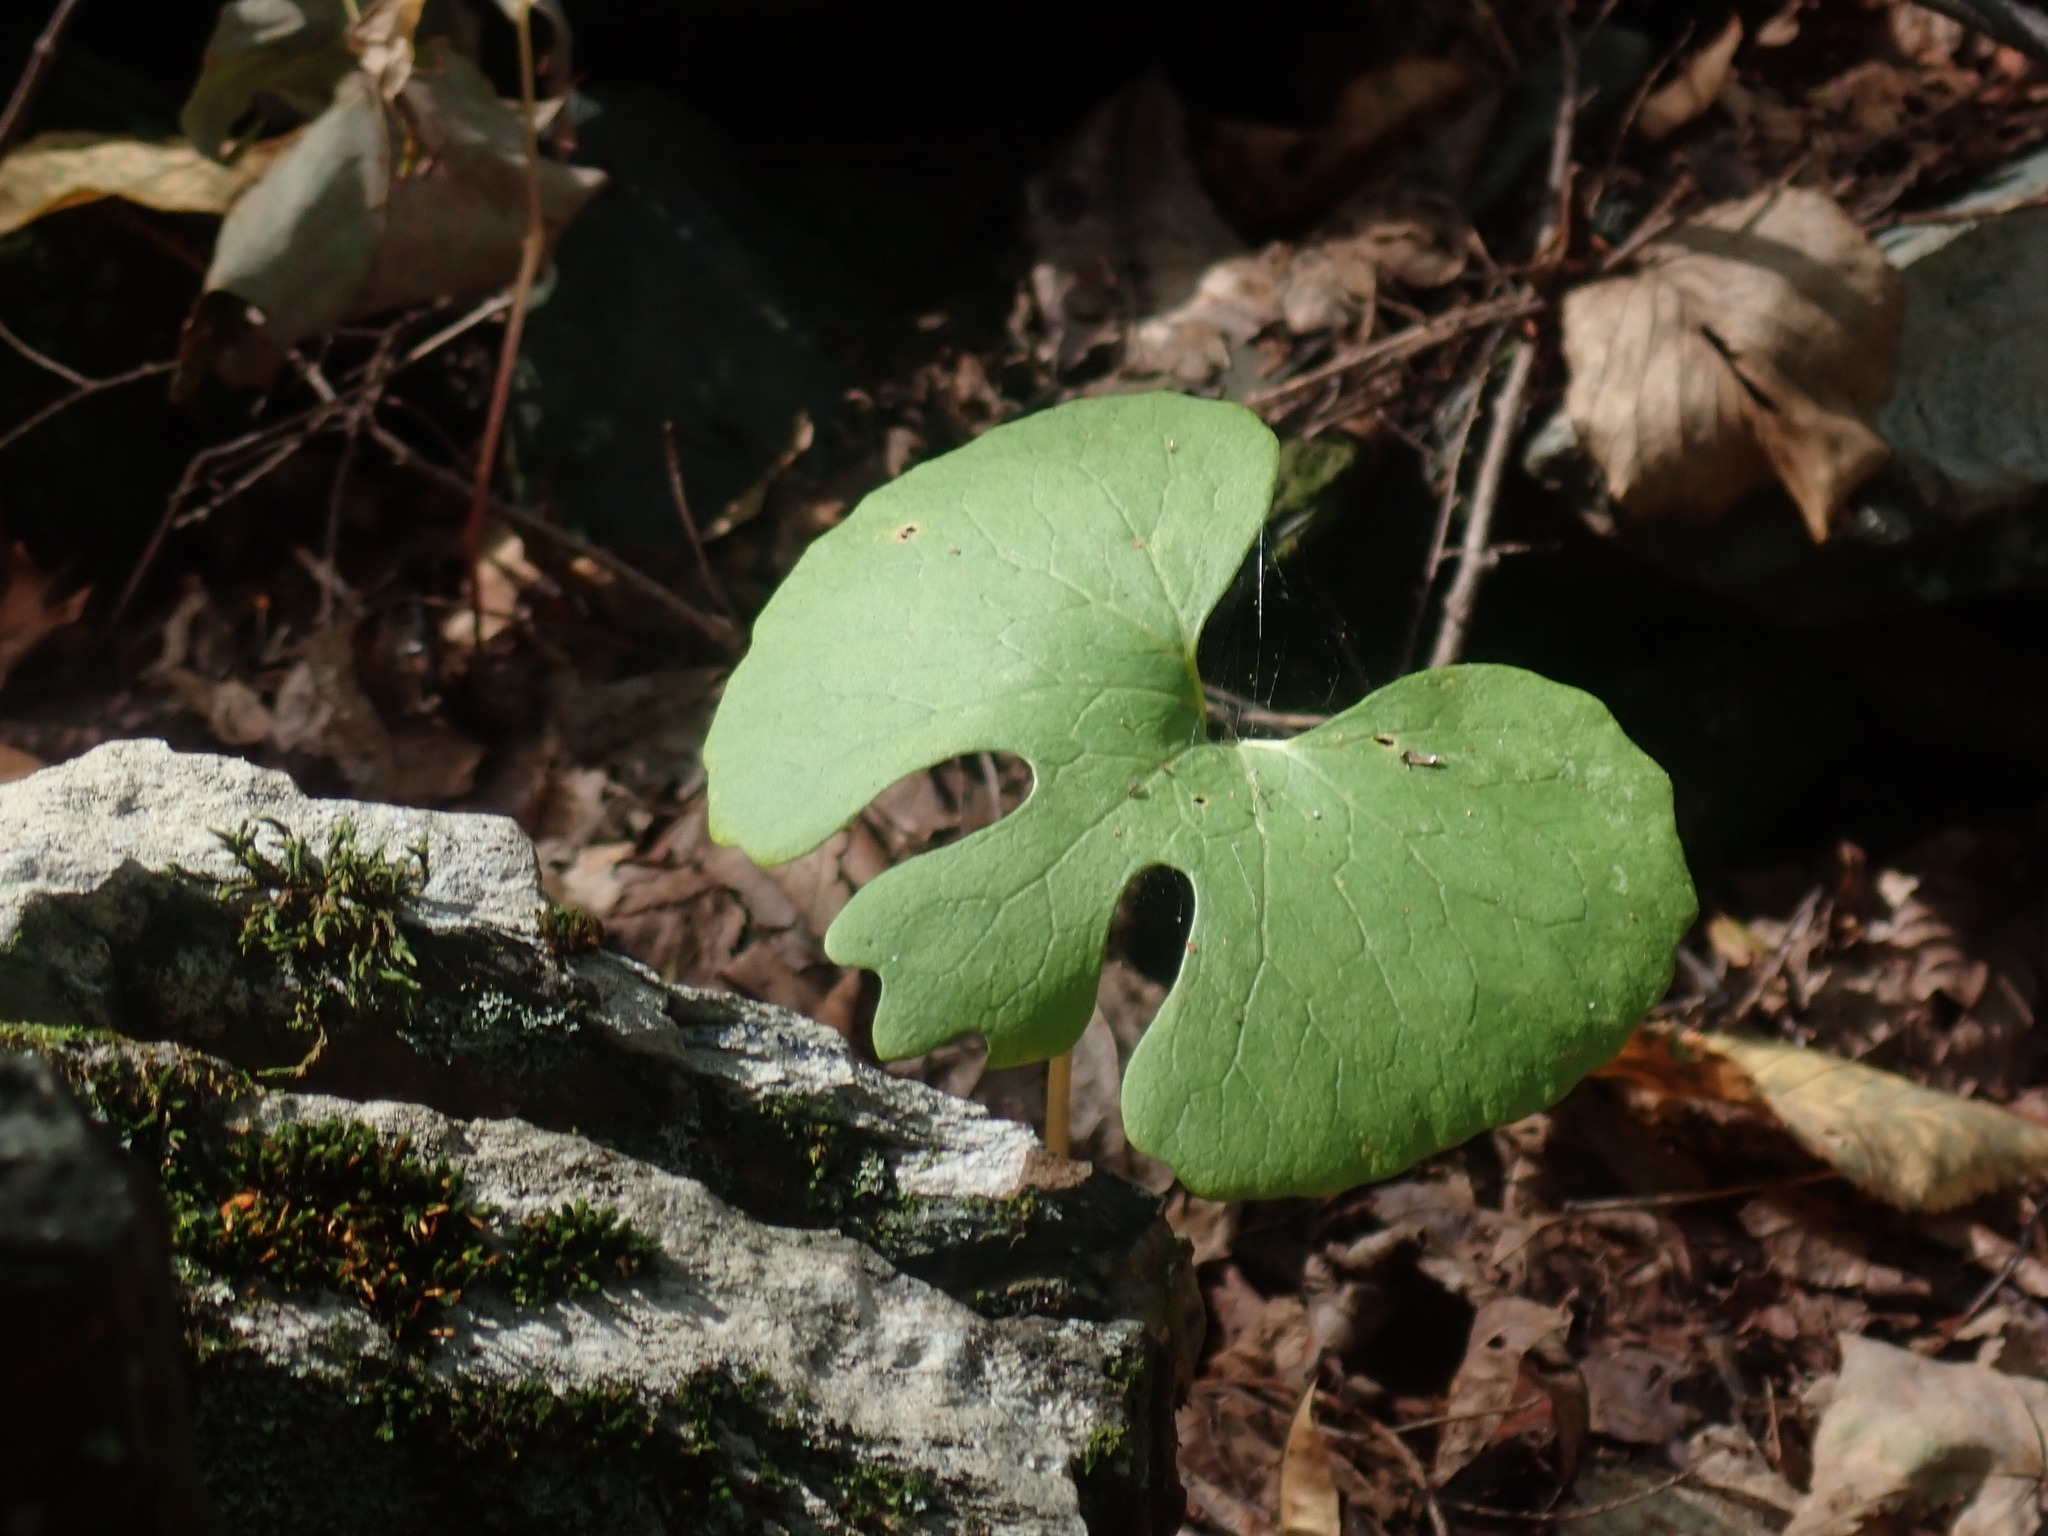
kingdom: Plantae
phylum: Tracheophyta
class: Magnoliopsida
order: Ranunculales
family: Papaveraceae
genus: Sanguinaria
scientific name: Sanguinaria canadensis
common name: Bloodroot
